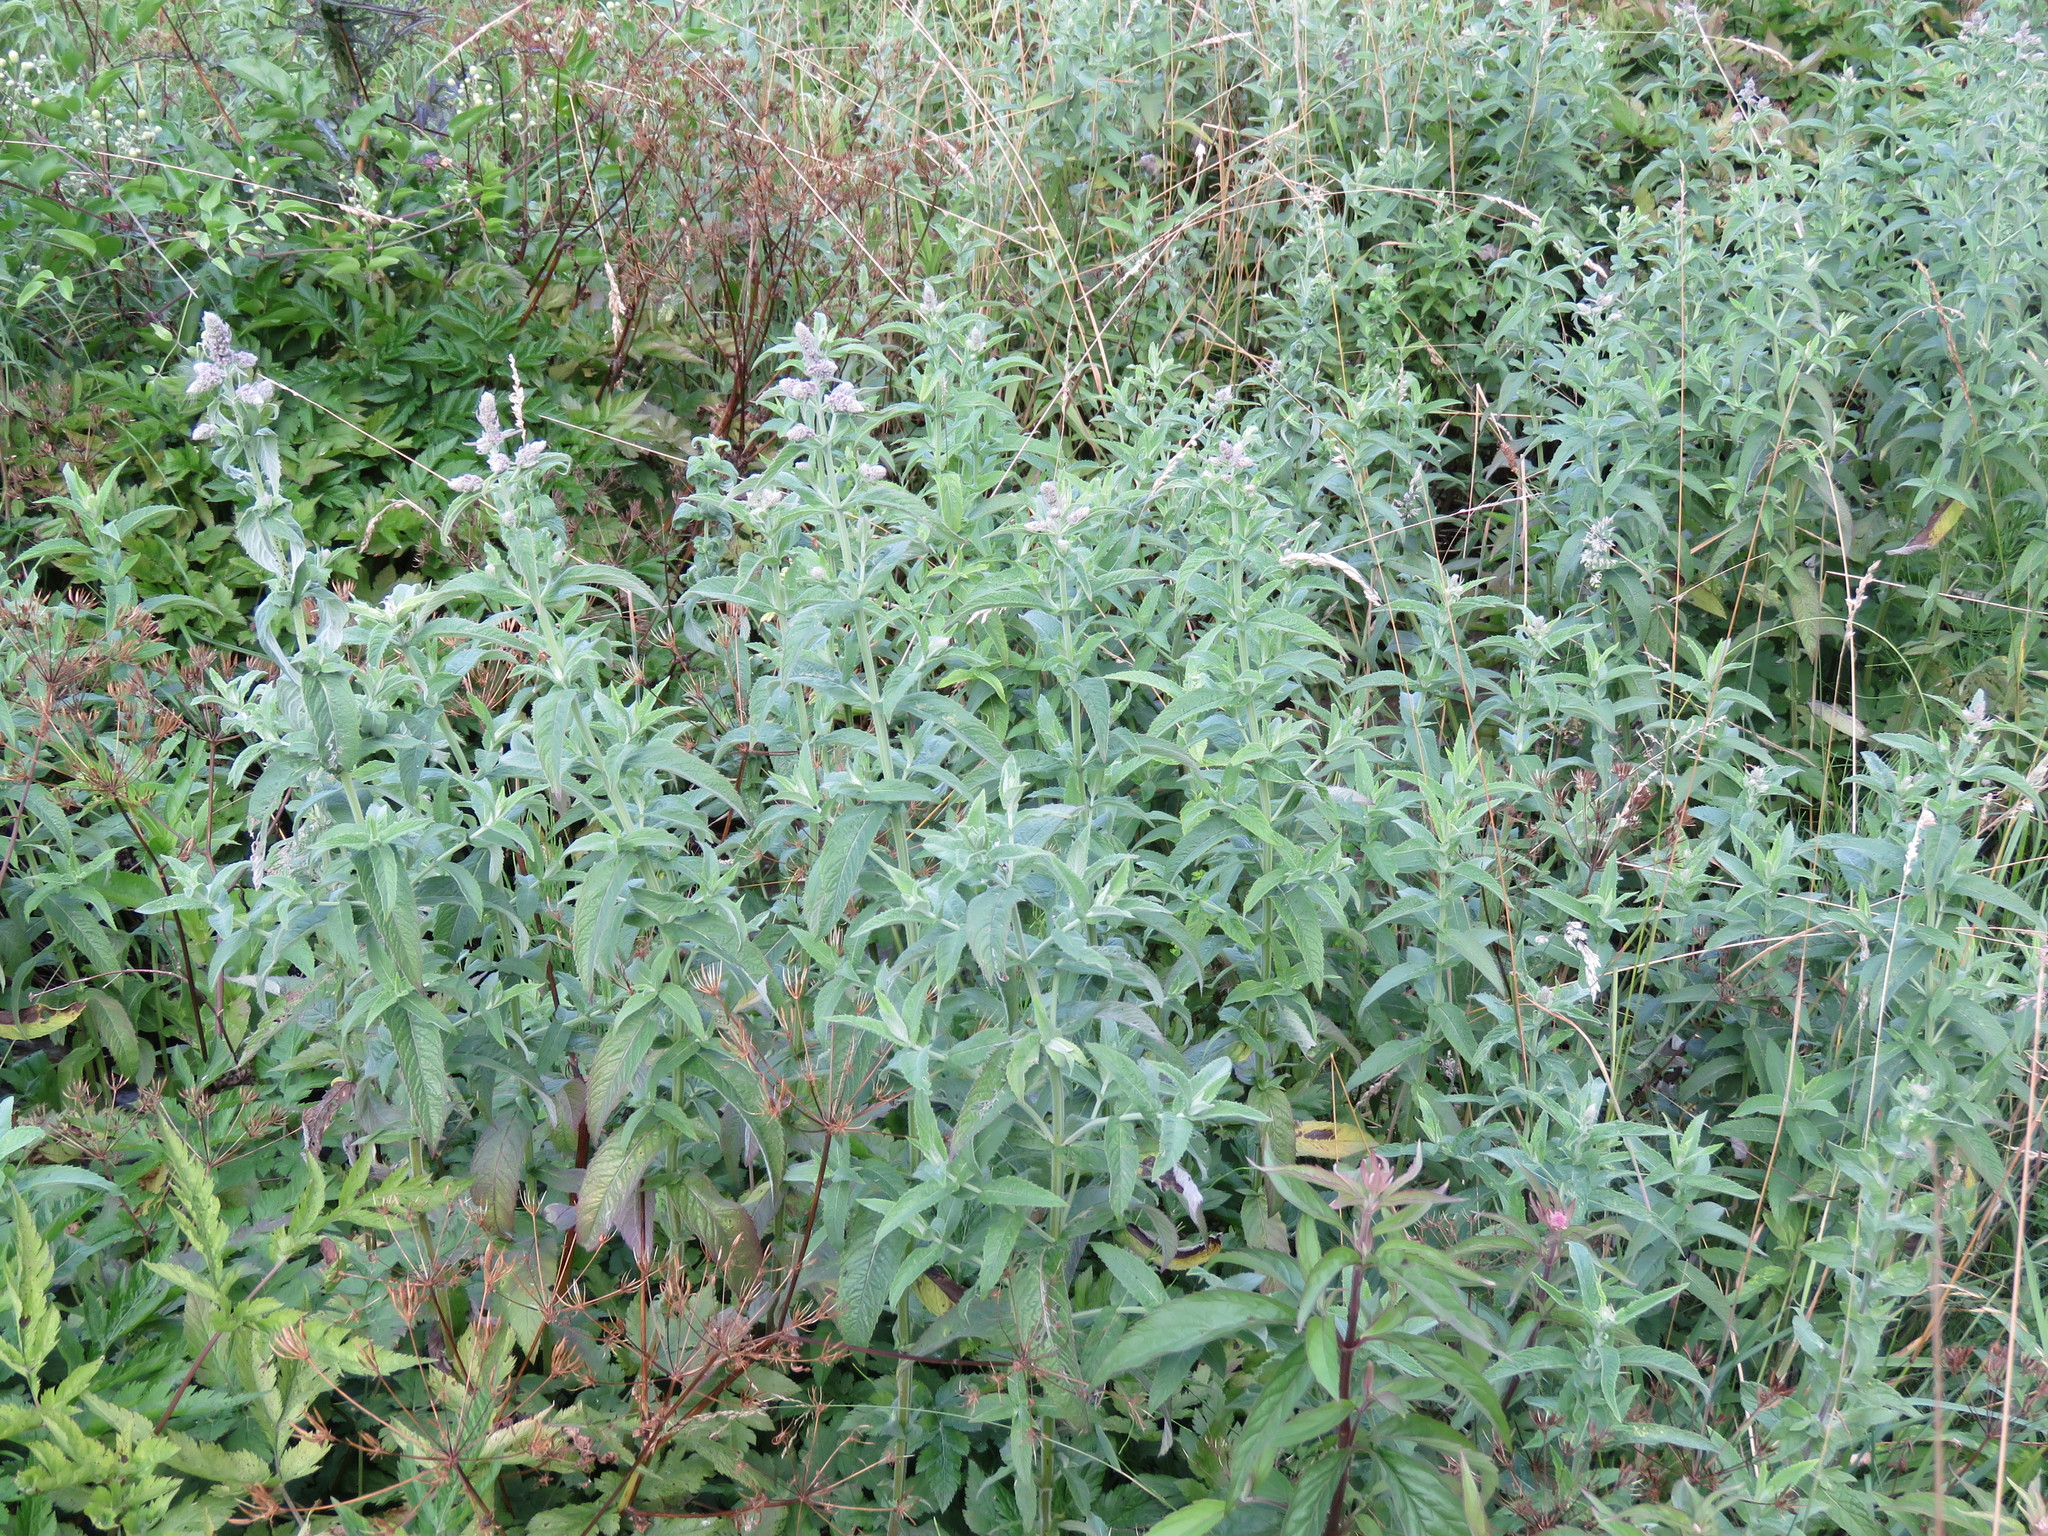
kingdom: Plantae
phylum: Tracheophyta
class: Magnoliopsida
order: Lamiales
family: Lamiaceae
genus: Mentha
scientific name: Mentha longifolia
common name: Horse mint
